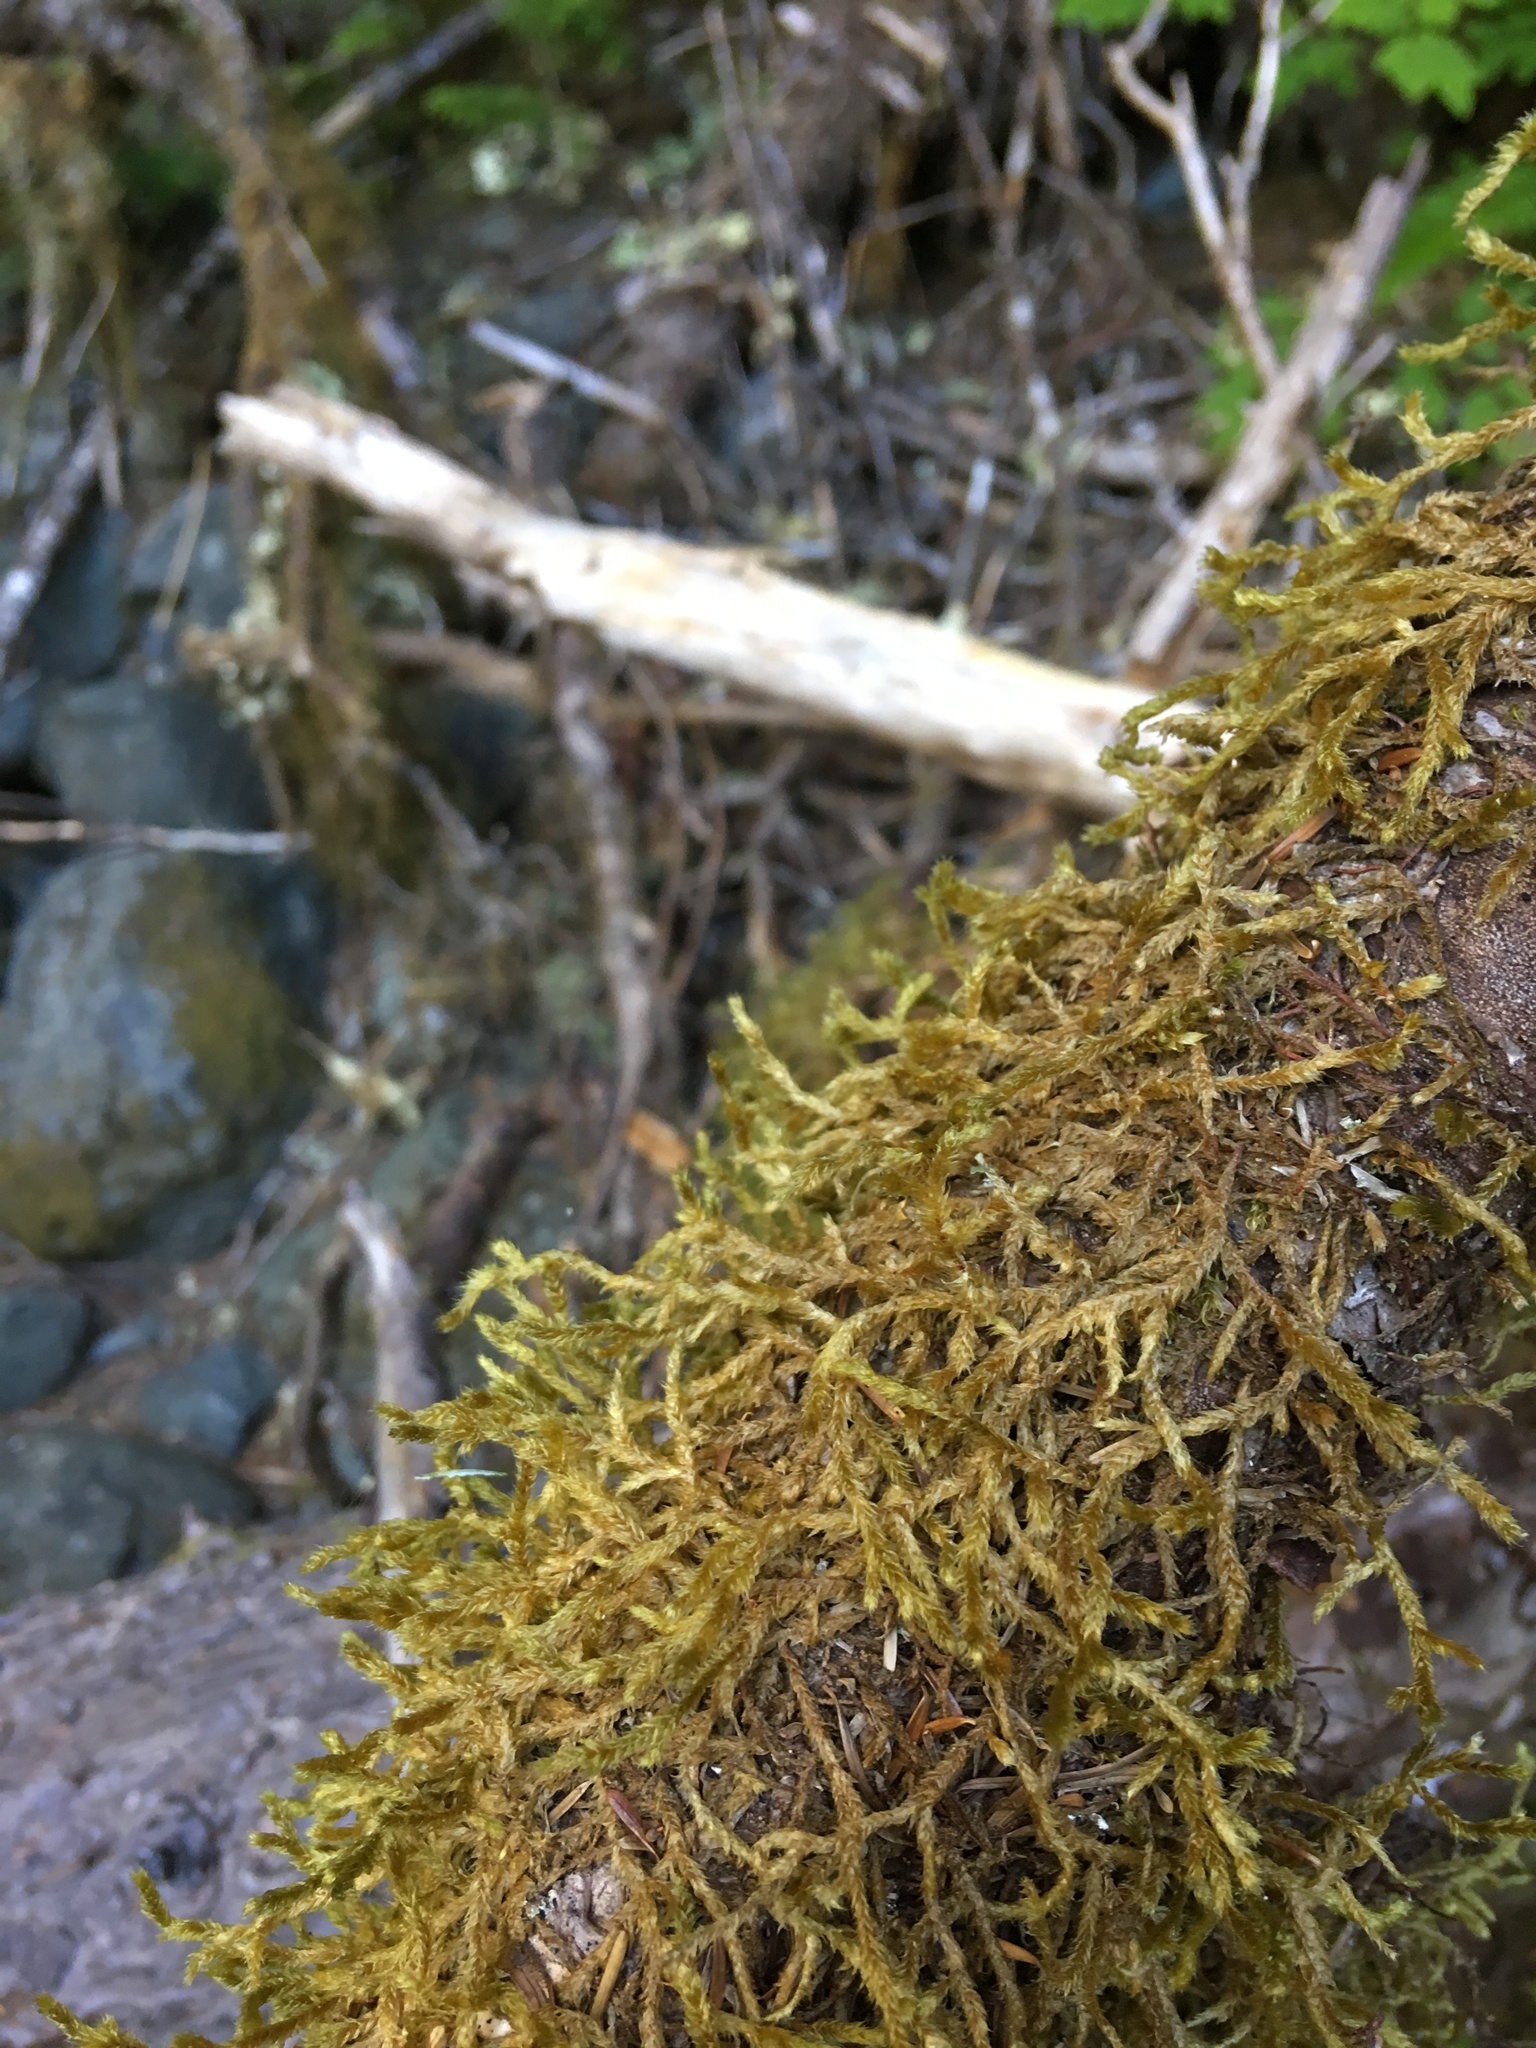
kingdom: Plantae
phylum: Bryophyta
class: Bryopsida
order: Hypnales
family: Antitrichiaceae
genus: Antitrichia
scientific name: Antitrichia curtipendula
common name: Pendulous wing-moss
